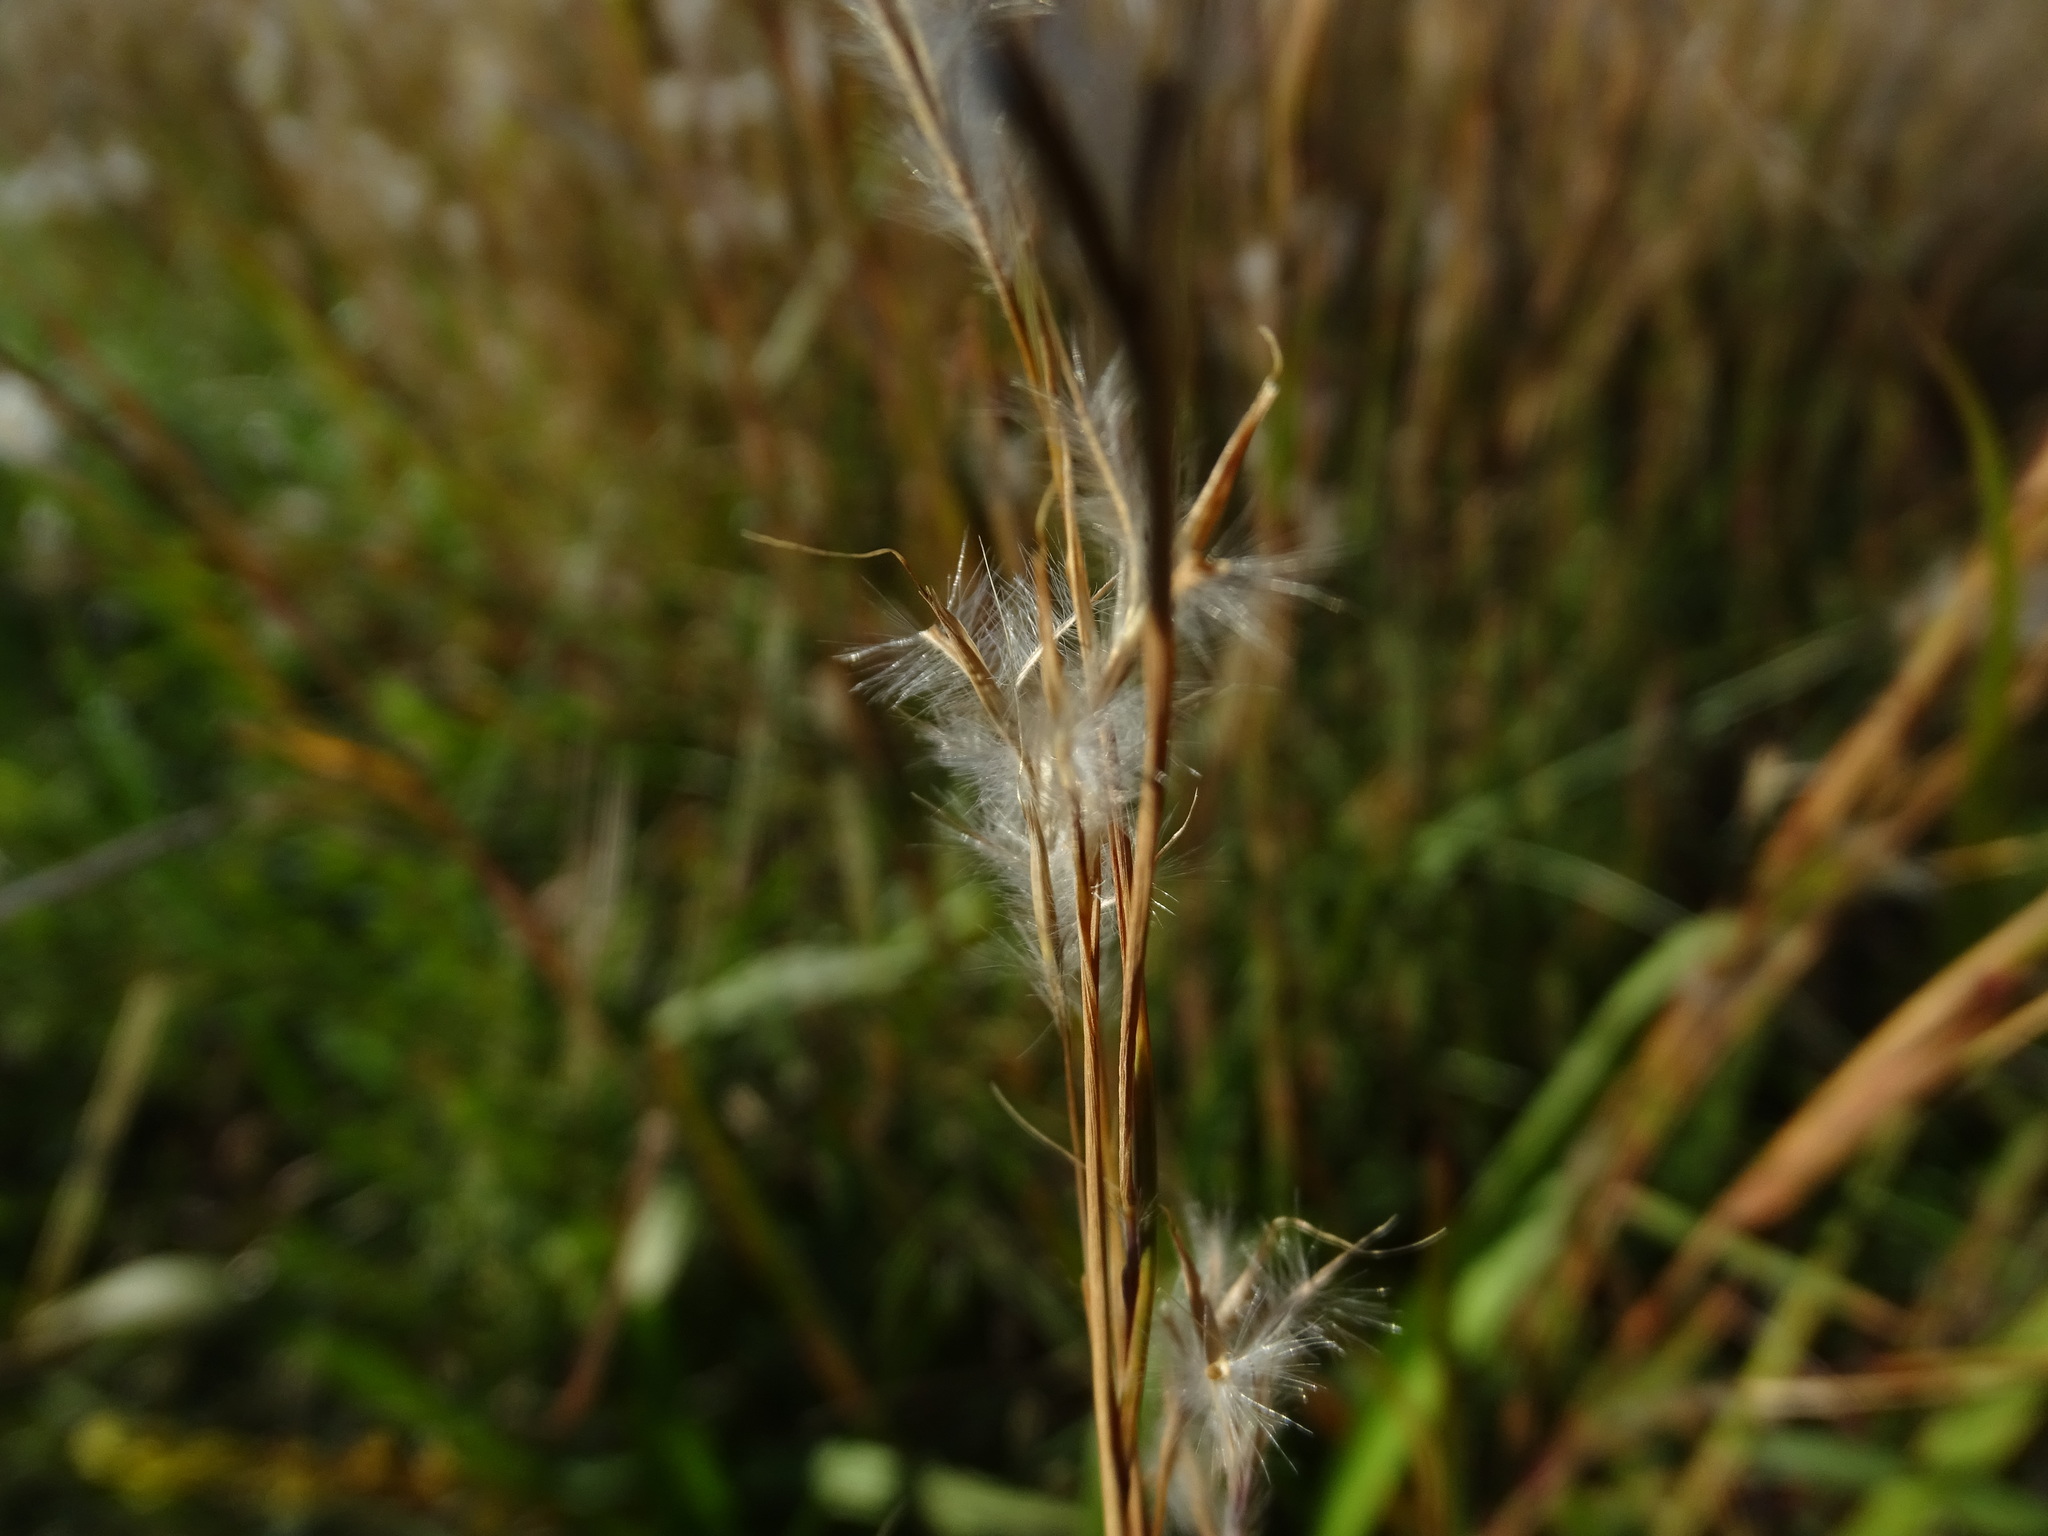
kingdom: Plantae
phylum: Tracheophyta
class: Liliopsida
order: Poales
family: Poaceae
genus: Schizachyrium
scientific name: Schizachyrium scoparium
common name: Little bluestem
